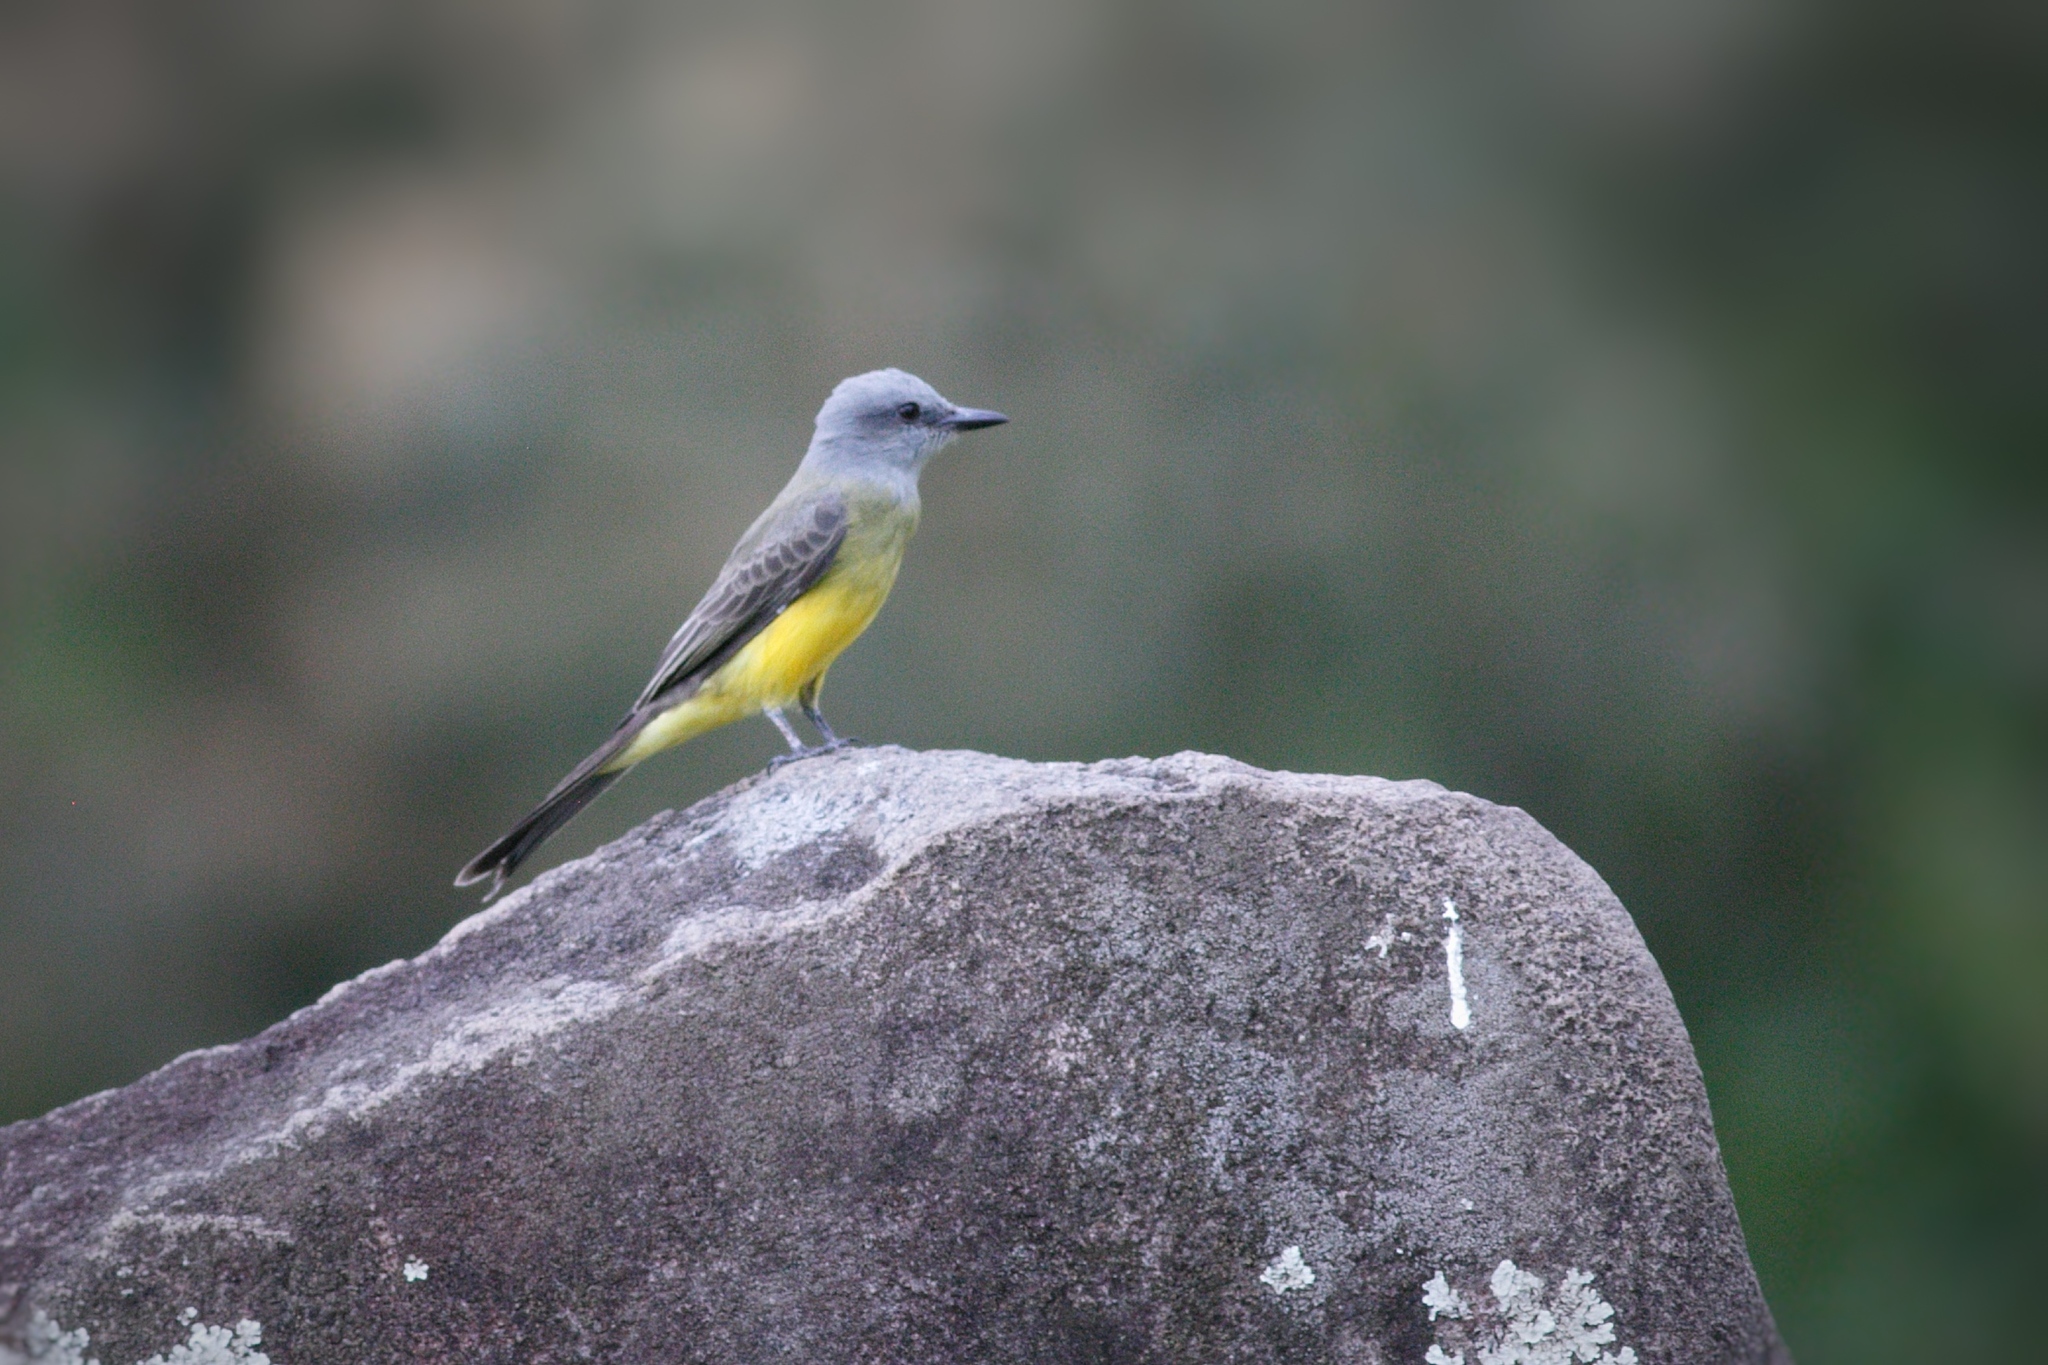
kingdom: Animalia
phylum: Chordata
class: Aves
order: Passeriformes
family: Tyrannidae
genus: Tyrannus
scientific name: Tyrannus melancholicus
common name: Tropical kingbird
